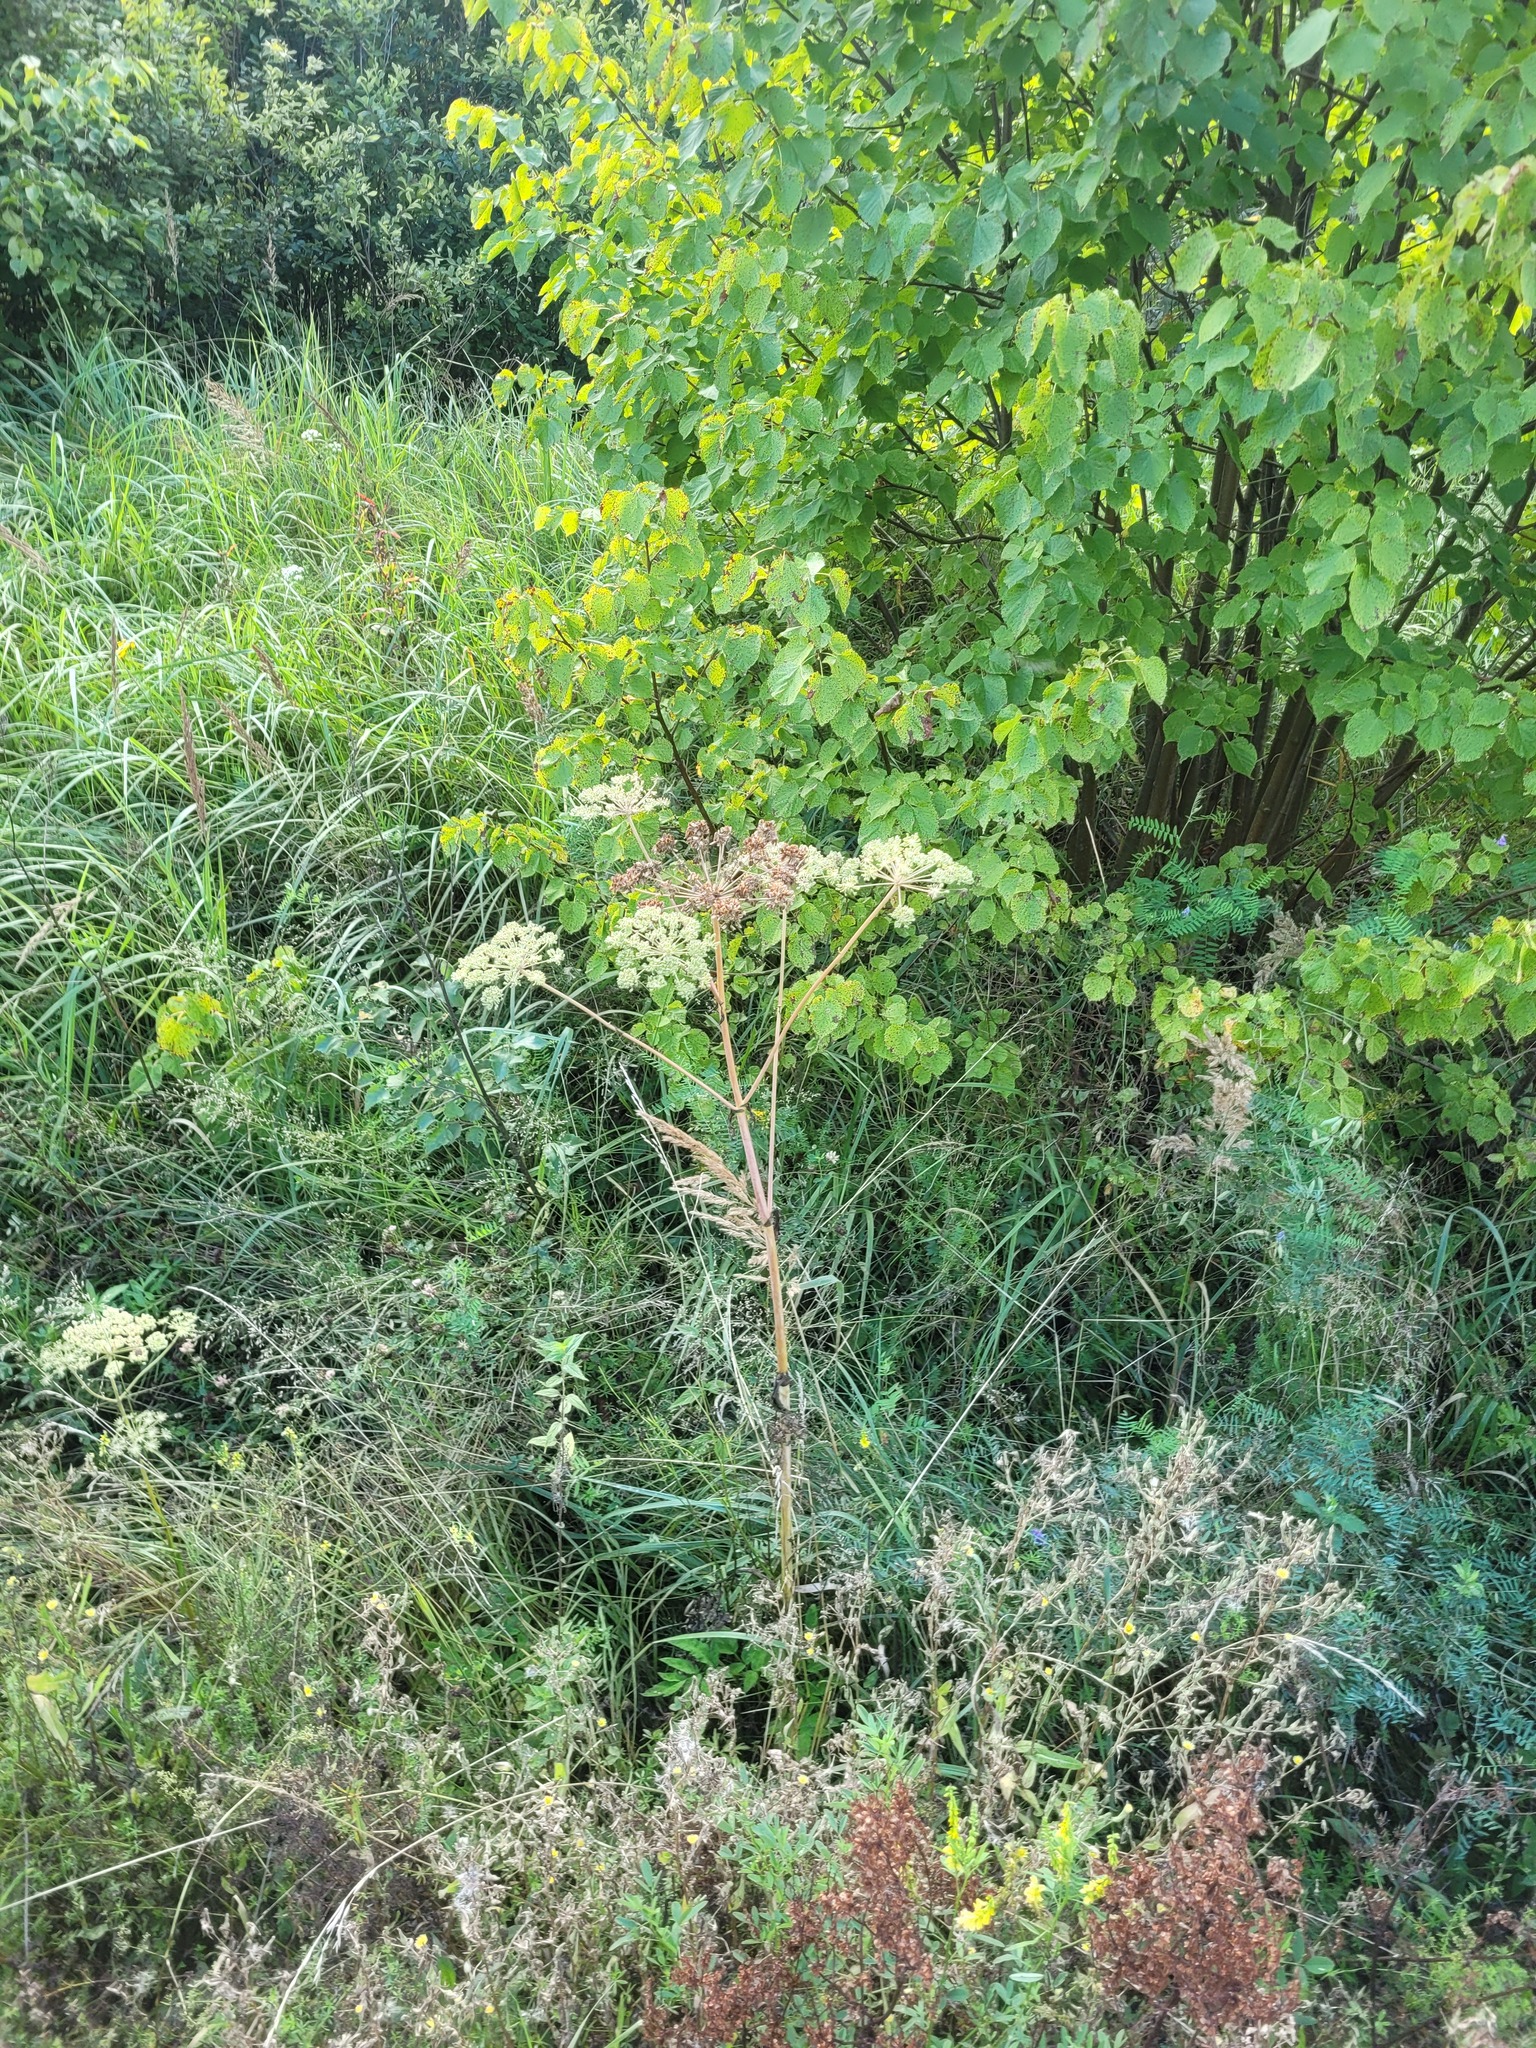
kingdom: Plantae
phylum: Tracheophyta
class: Magnoliopsida
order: Apiales
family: Apiaceae
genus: Angelica
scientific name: Angelica sylvestris
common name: Wild angelica
